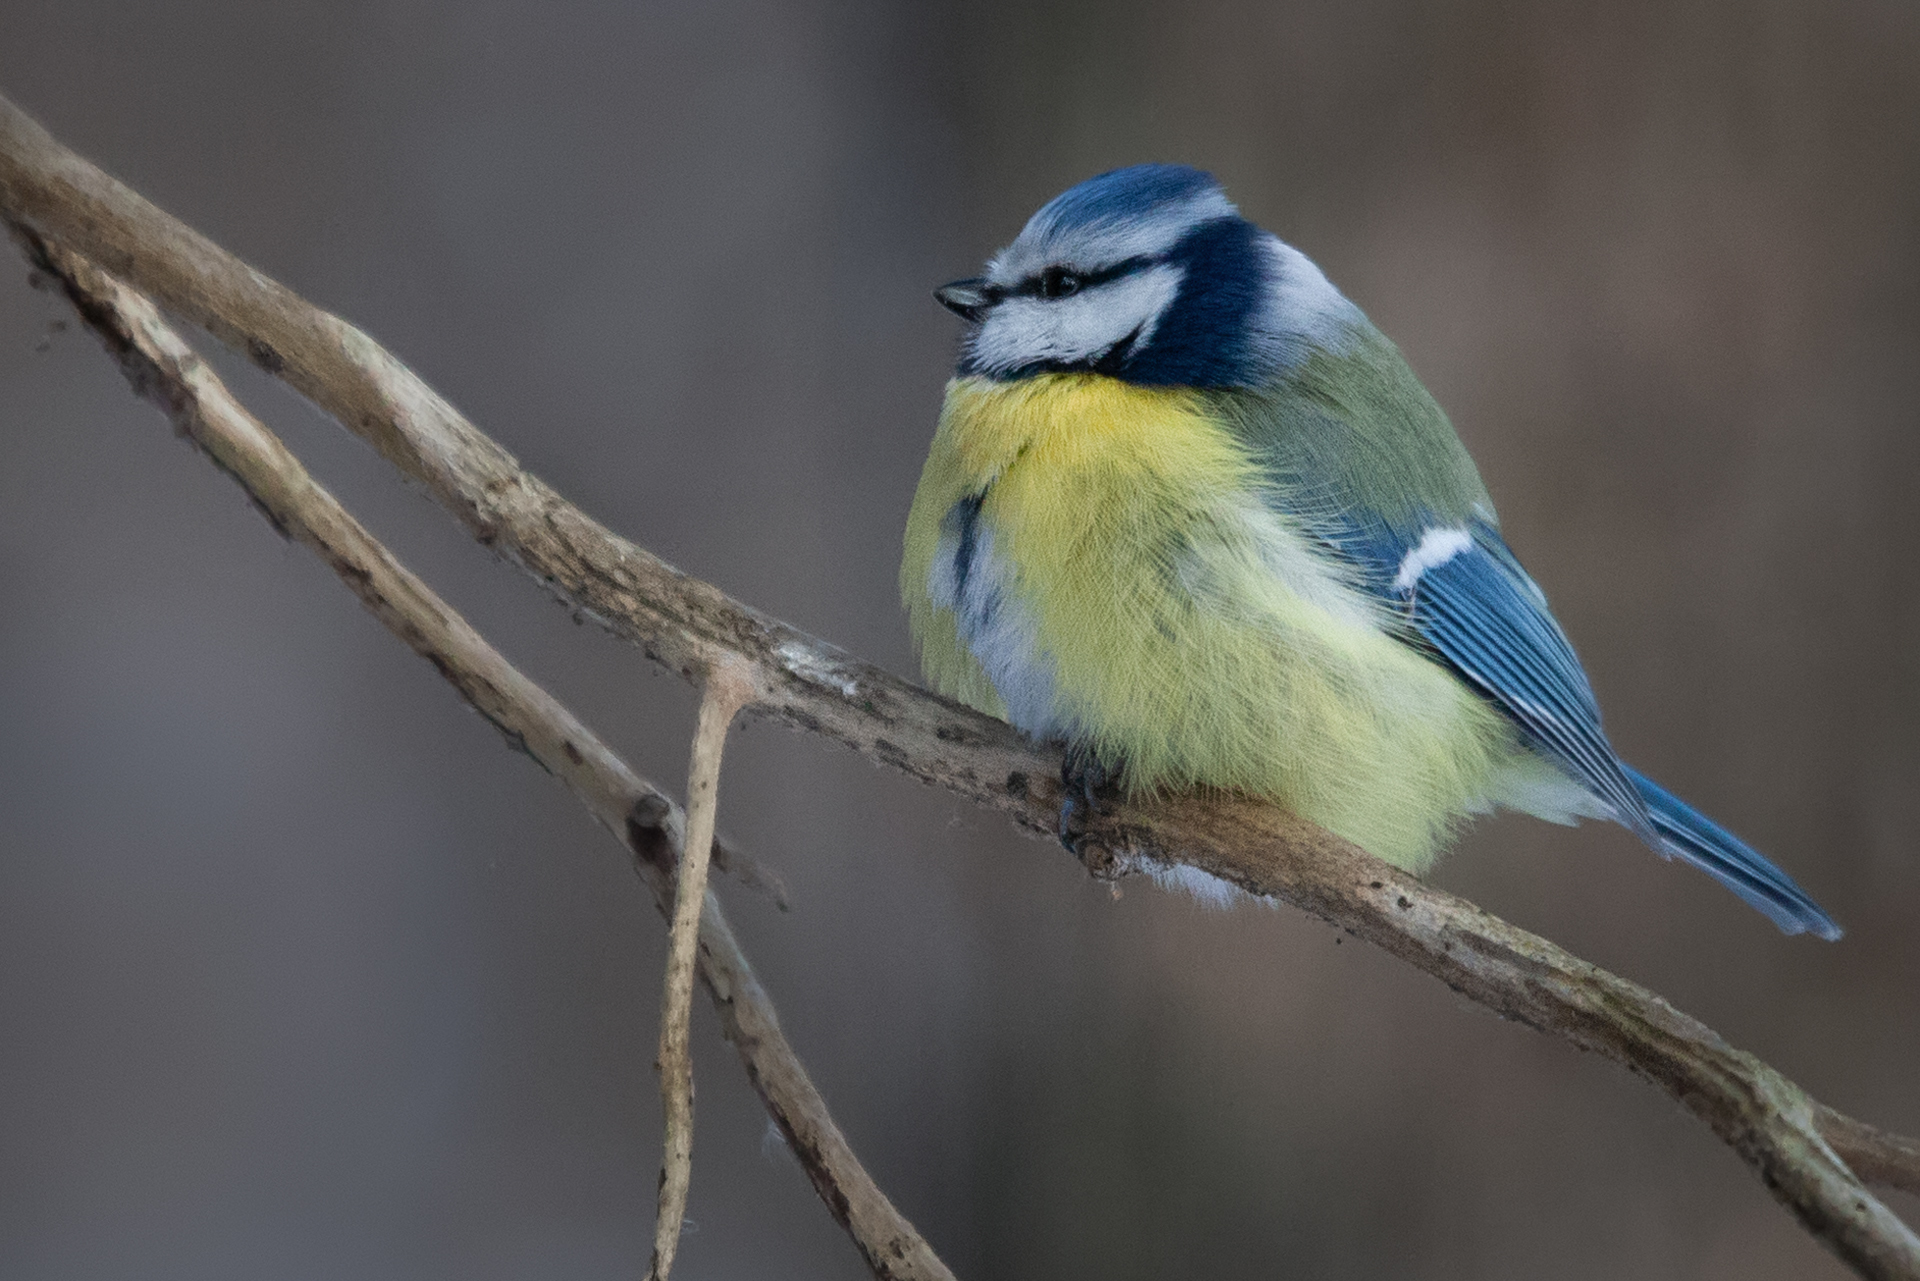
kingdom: Animalia
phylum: Chordata
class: Aves
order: Passeriformes
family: Paridae
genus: Cyanistes
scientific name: Cyanistes caeruleus
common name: Eurasian blue tit
